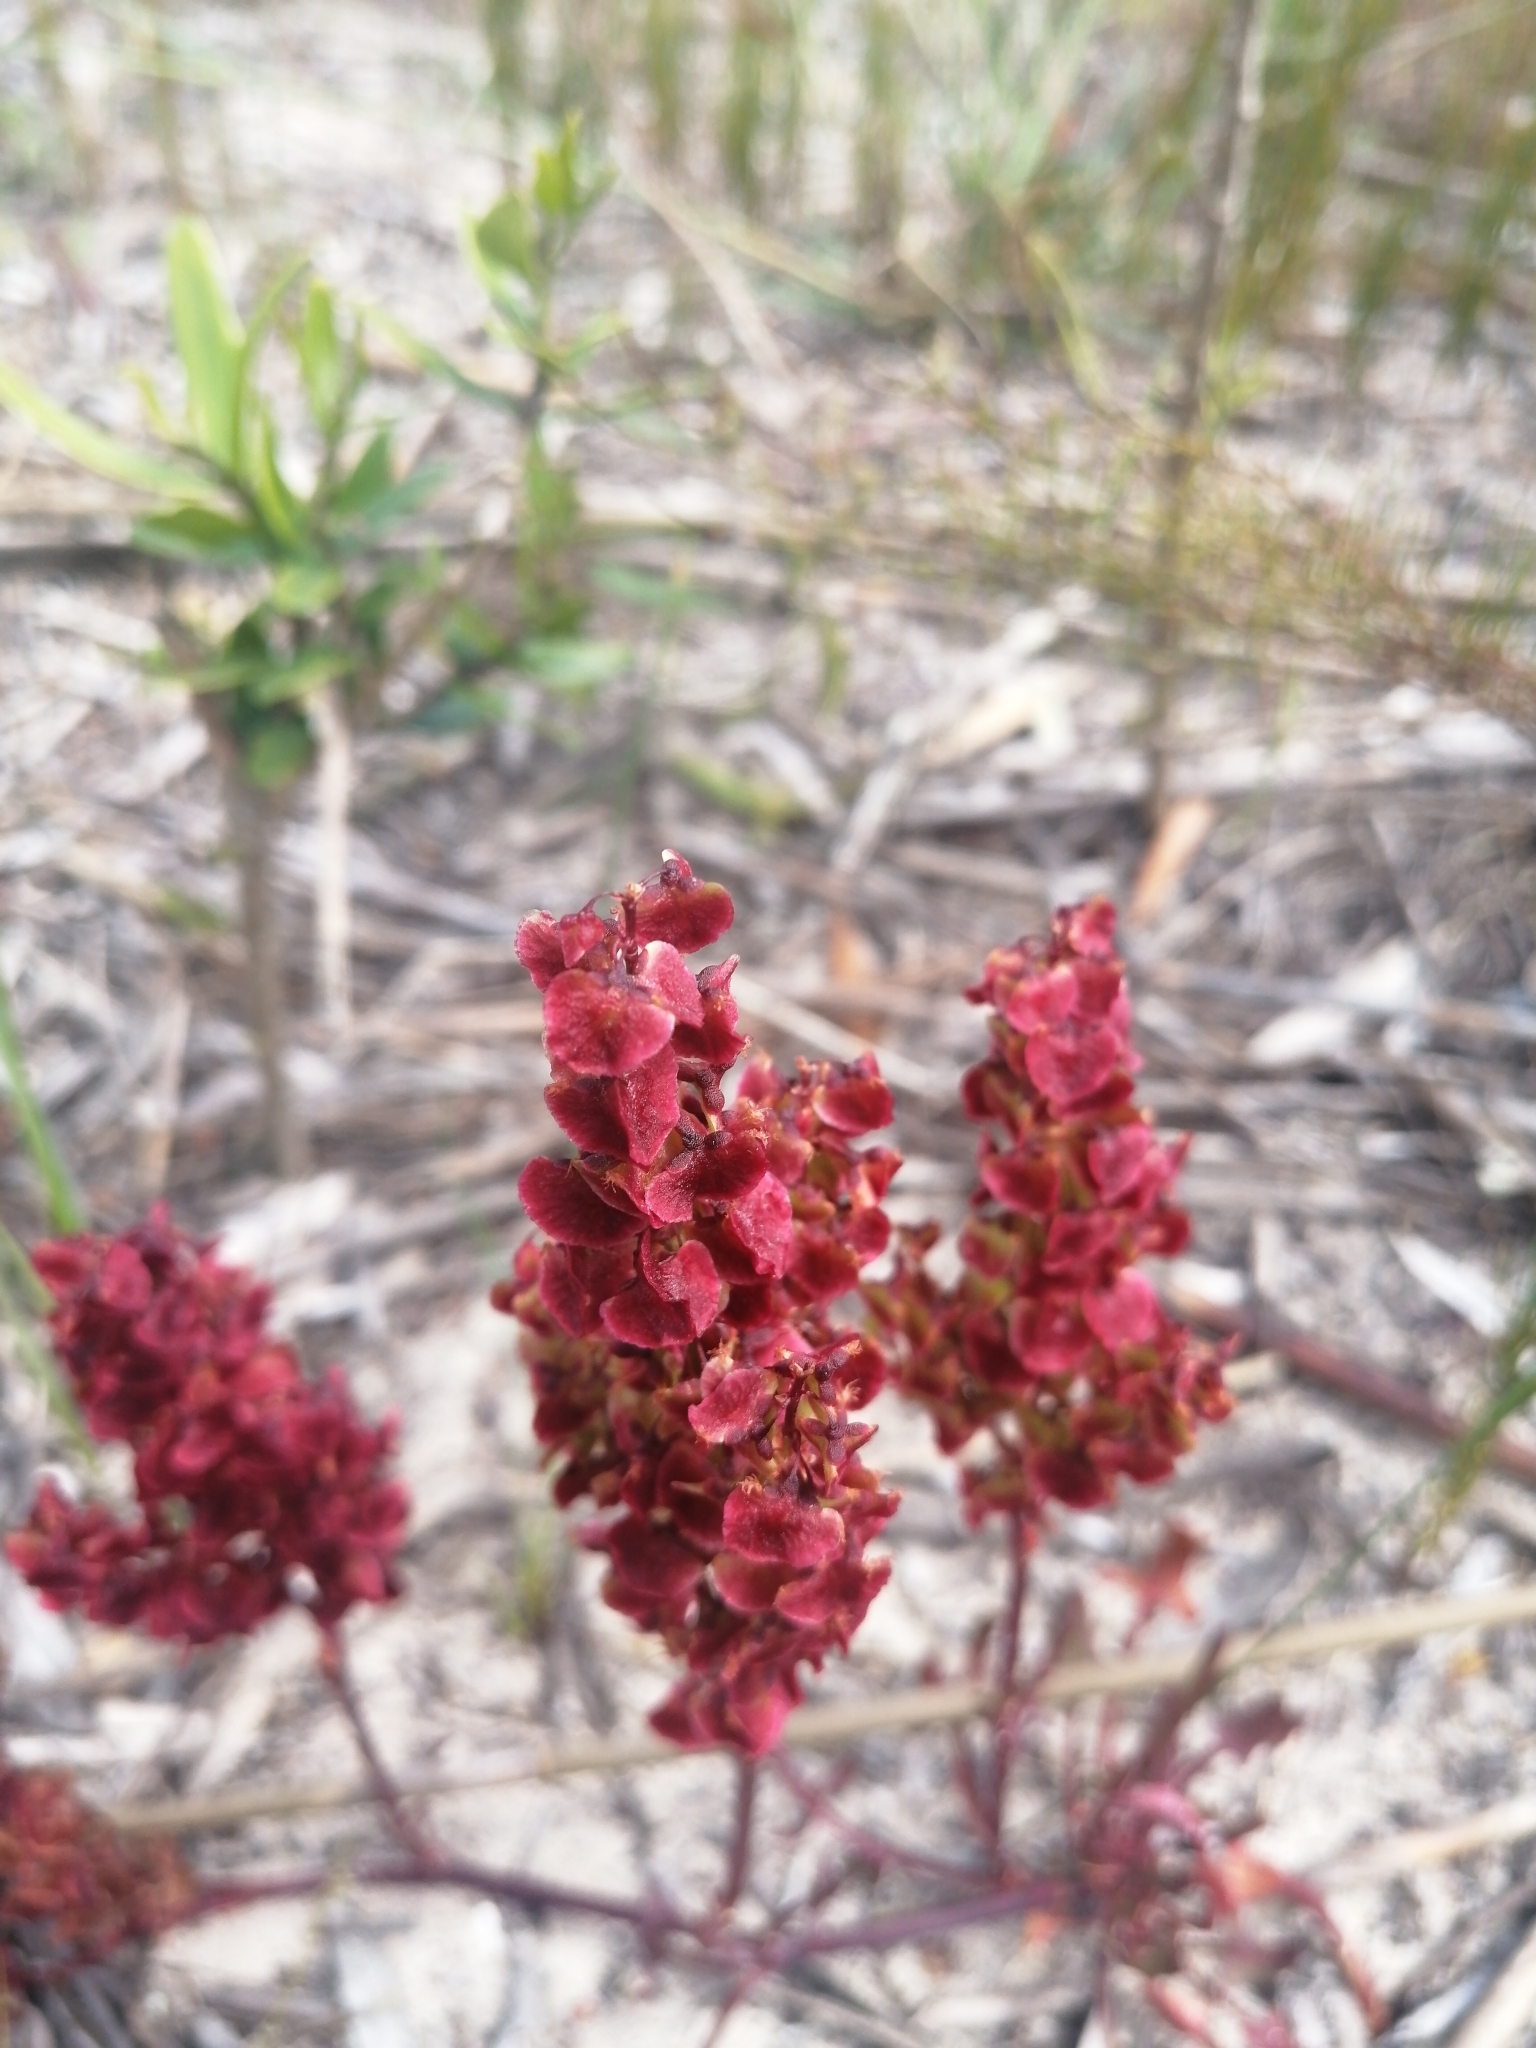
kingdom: Plantae
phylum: Tracheophyta
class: Magnoliopsida
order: Caryophyllales
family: Polygonaceae
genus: Rumex
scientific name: Rumex cordatus
